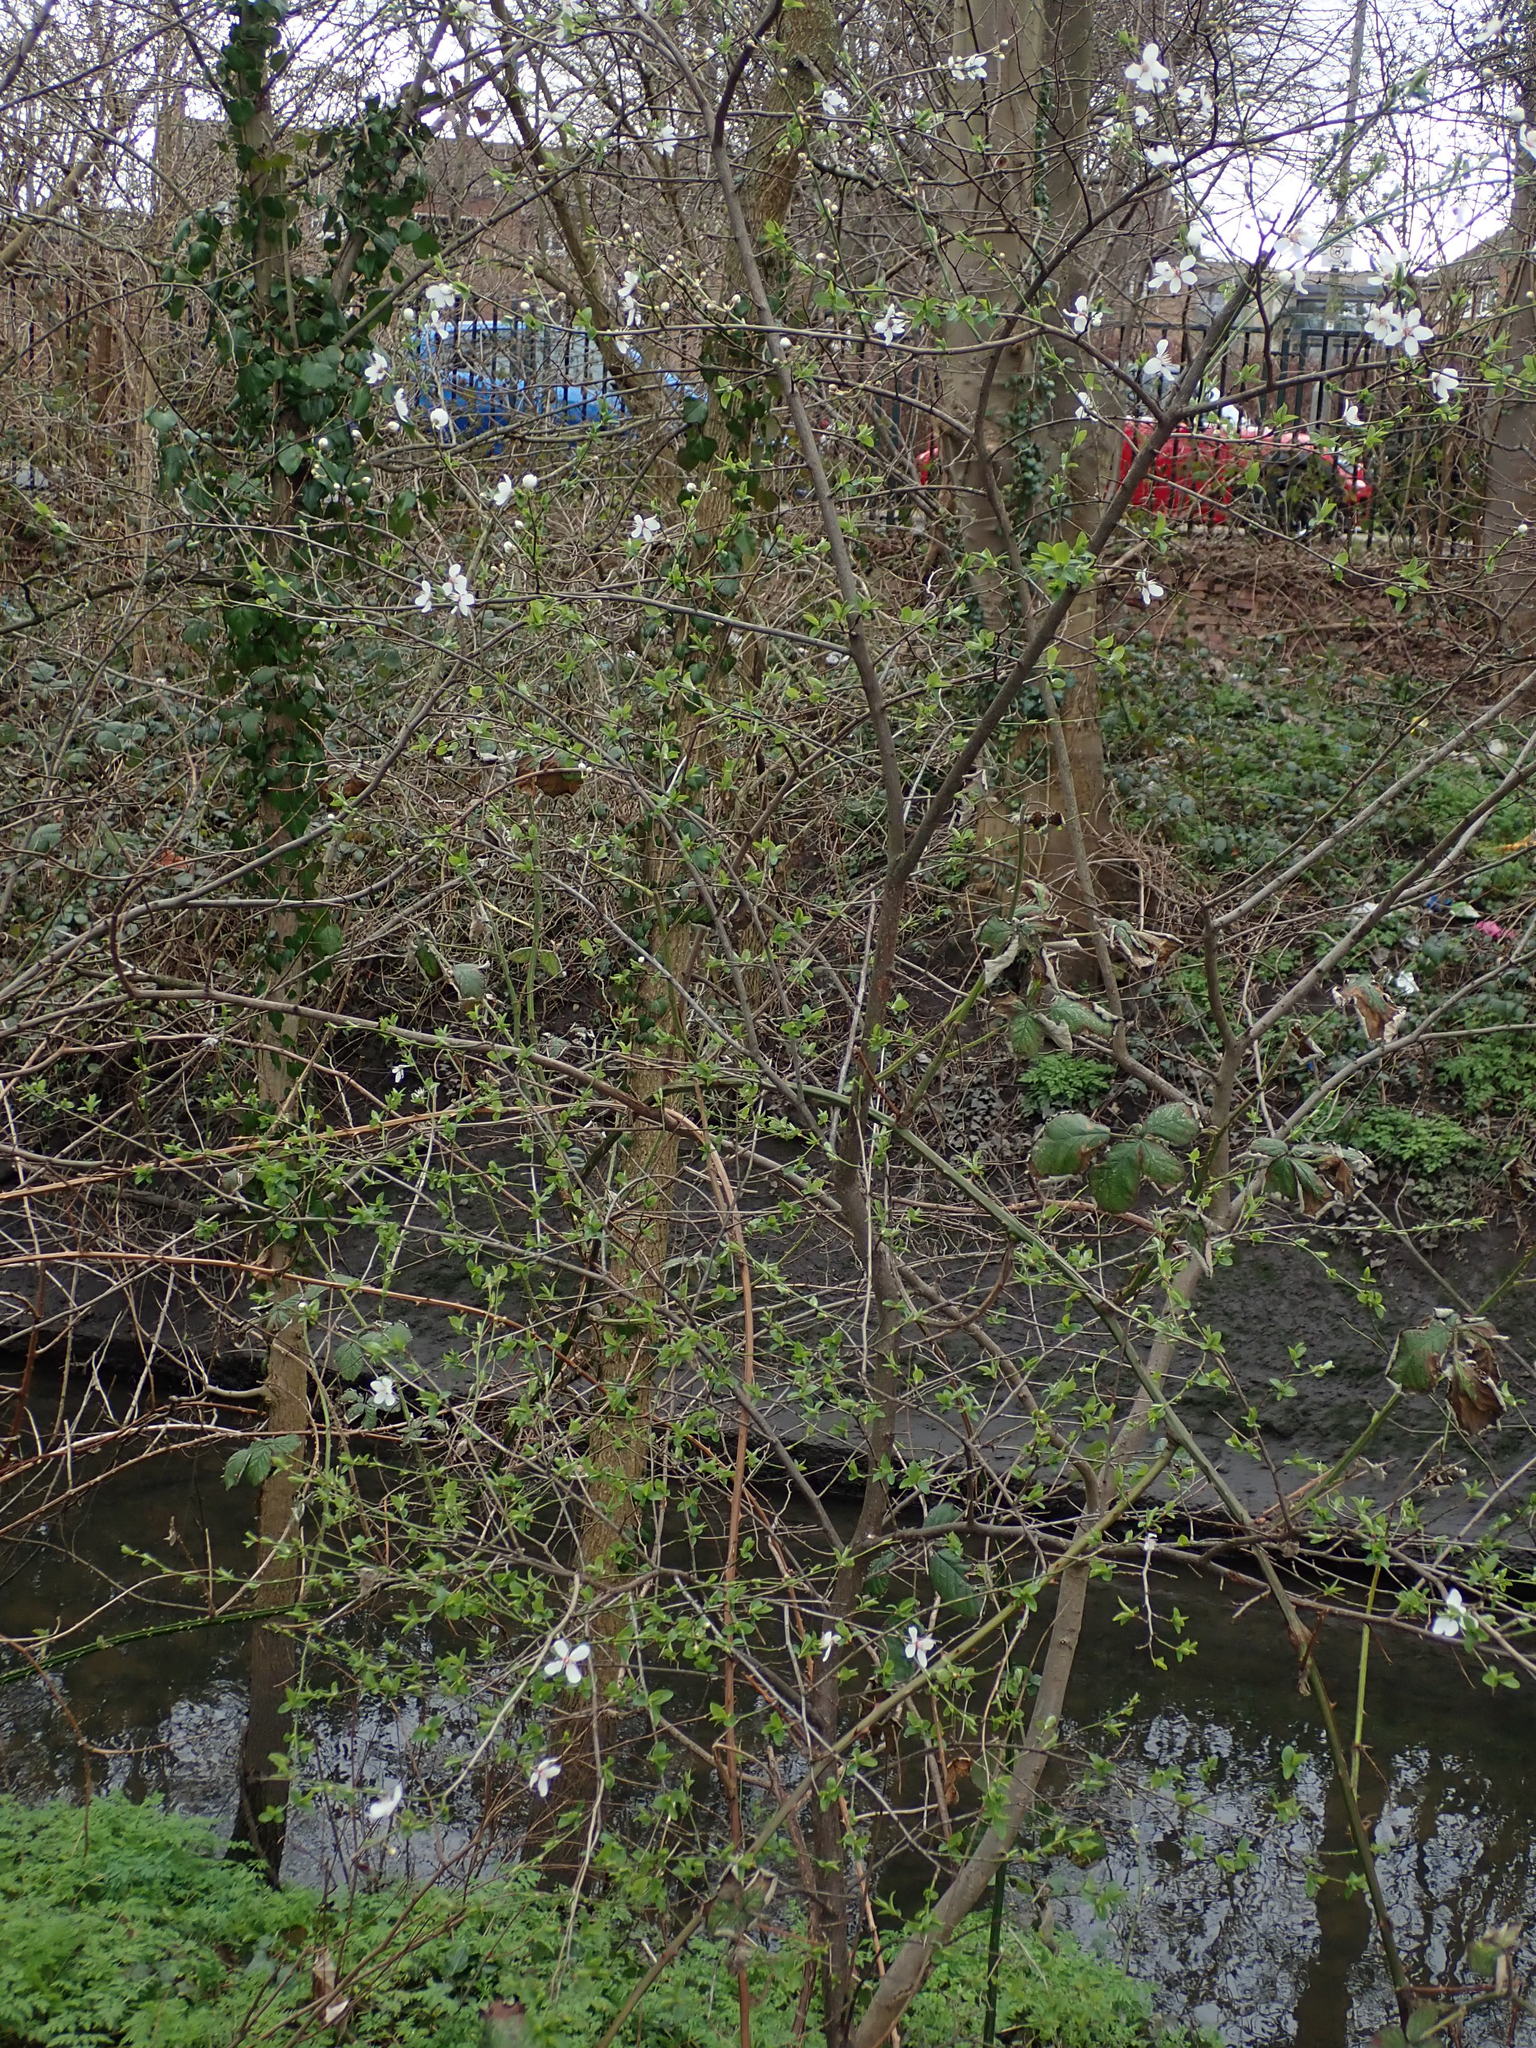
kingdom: Plantae
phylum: Tracheophyta
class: Magnoliopsida
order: Rosales
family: Rosaceae
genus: Prunus
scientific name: Prunus cerasifera
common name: Cherry plum
